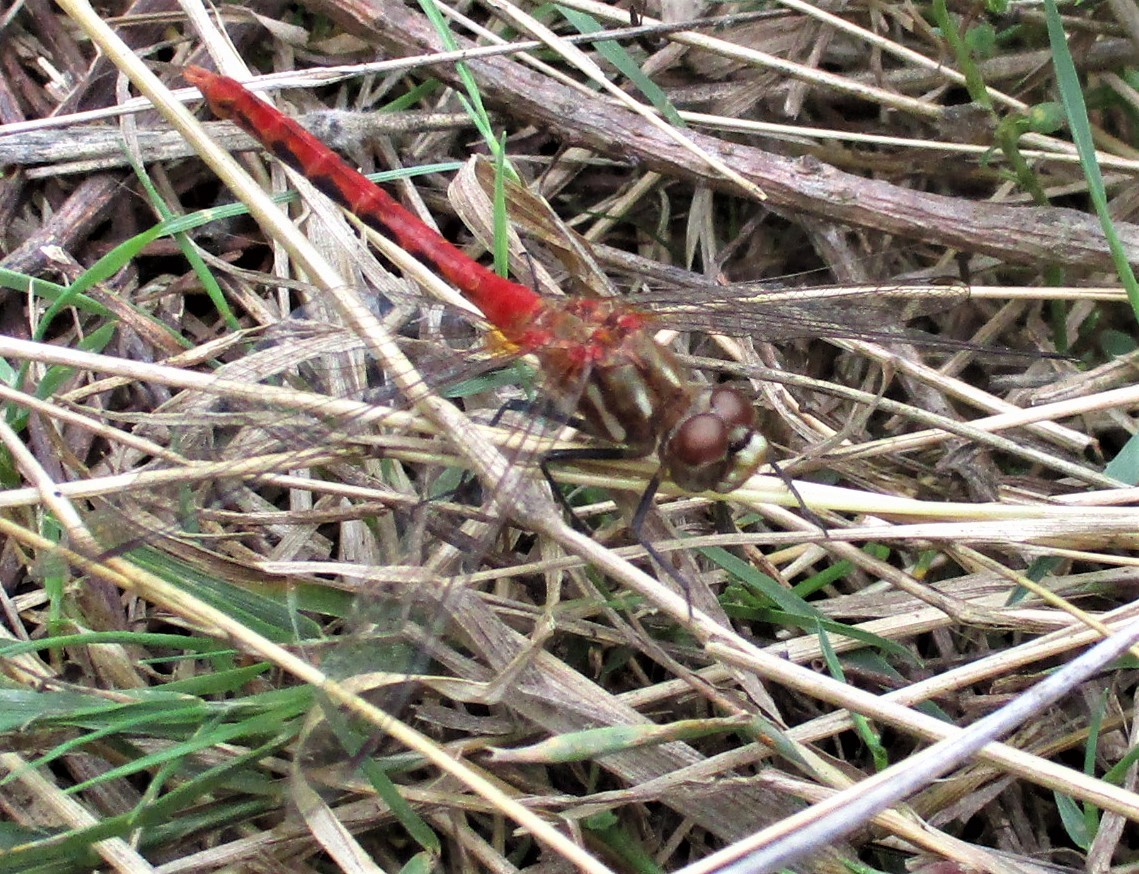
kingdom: Animalia
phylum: Arthropoda
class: Insecta
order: Odonata
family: Libellulidae
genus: Sympetrum
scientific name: Sympetrum pallipes
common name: Striped meadowhawk
